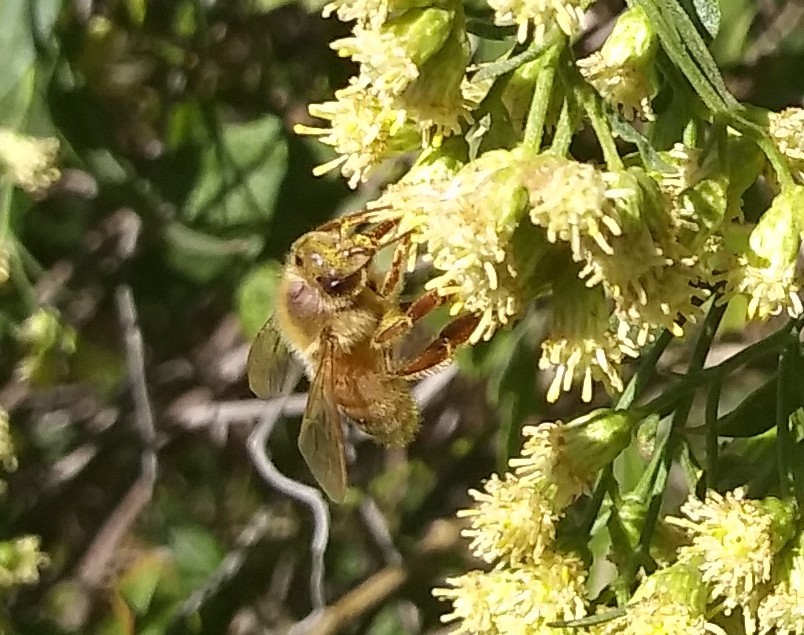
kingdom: Animalia
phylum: Arthropoda
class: Insecta
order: Hymenoptera
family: Apidae
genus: Apis
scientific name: Apis mellifera
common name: Honey bee
